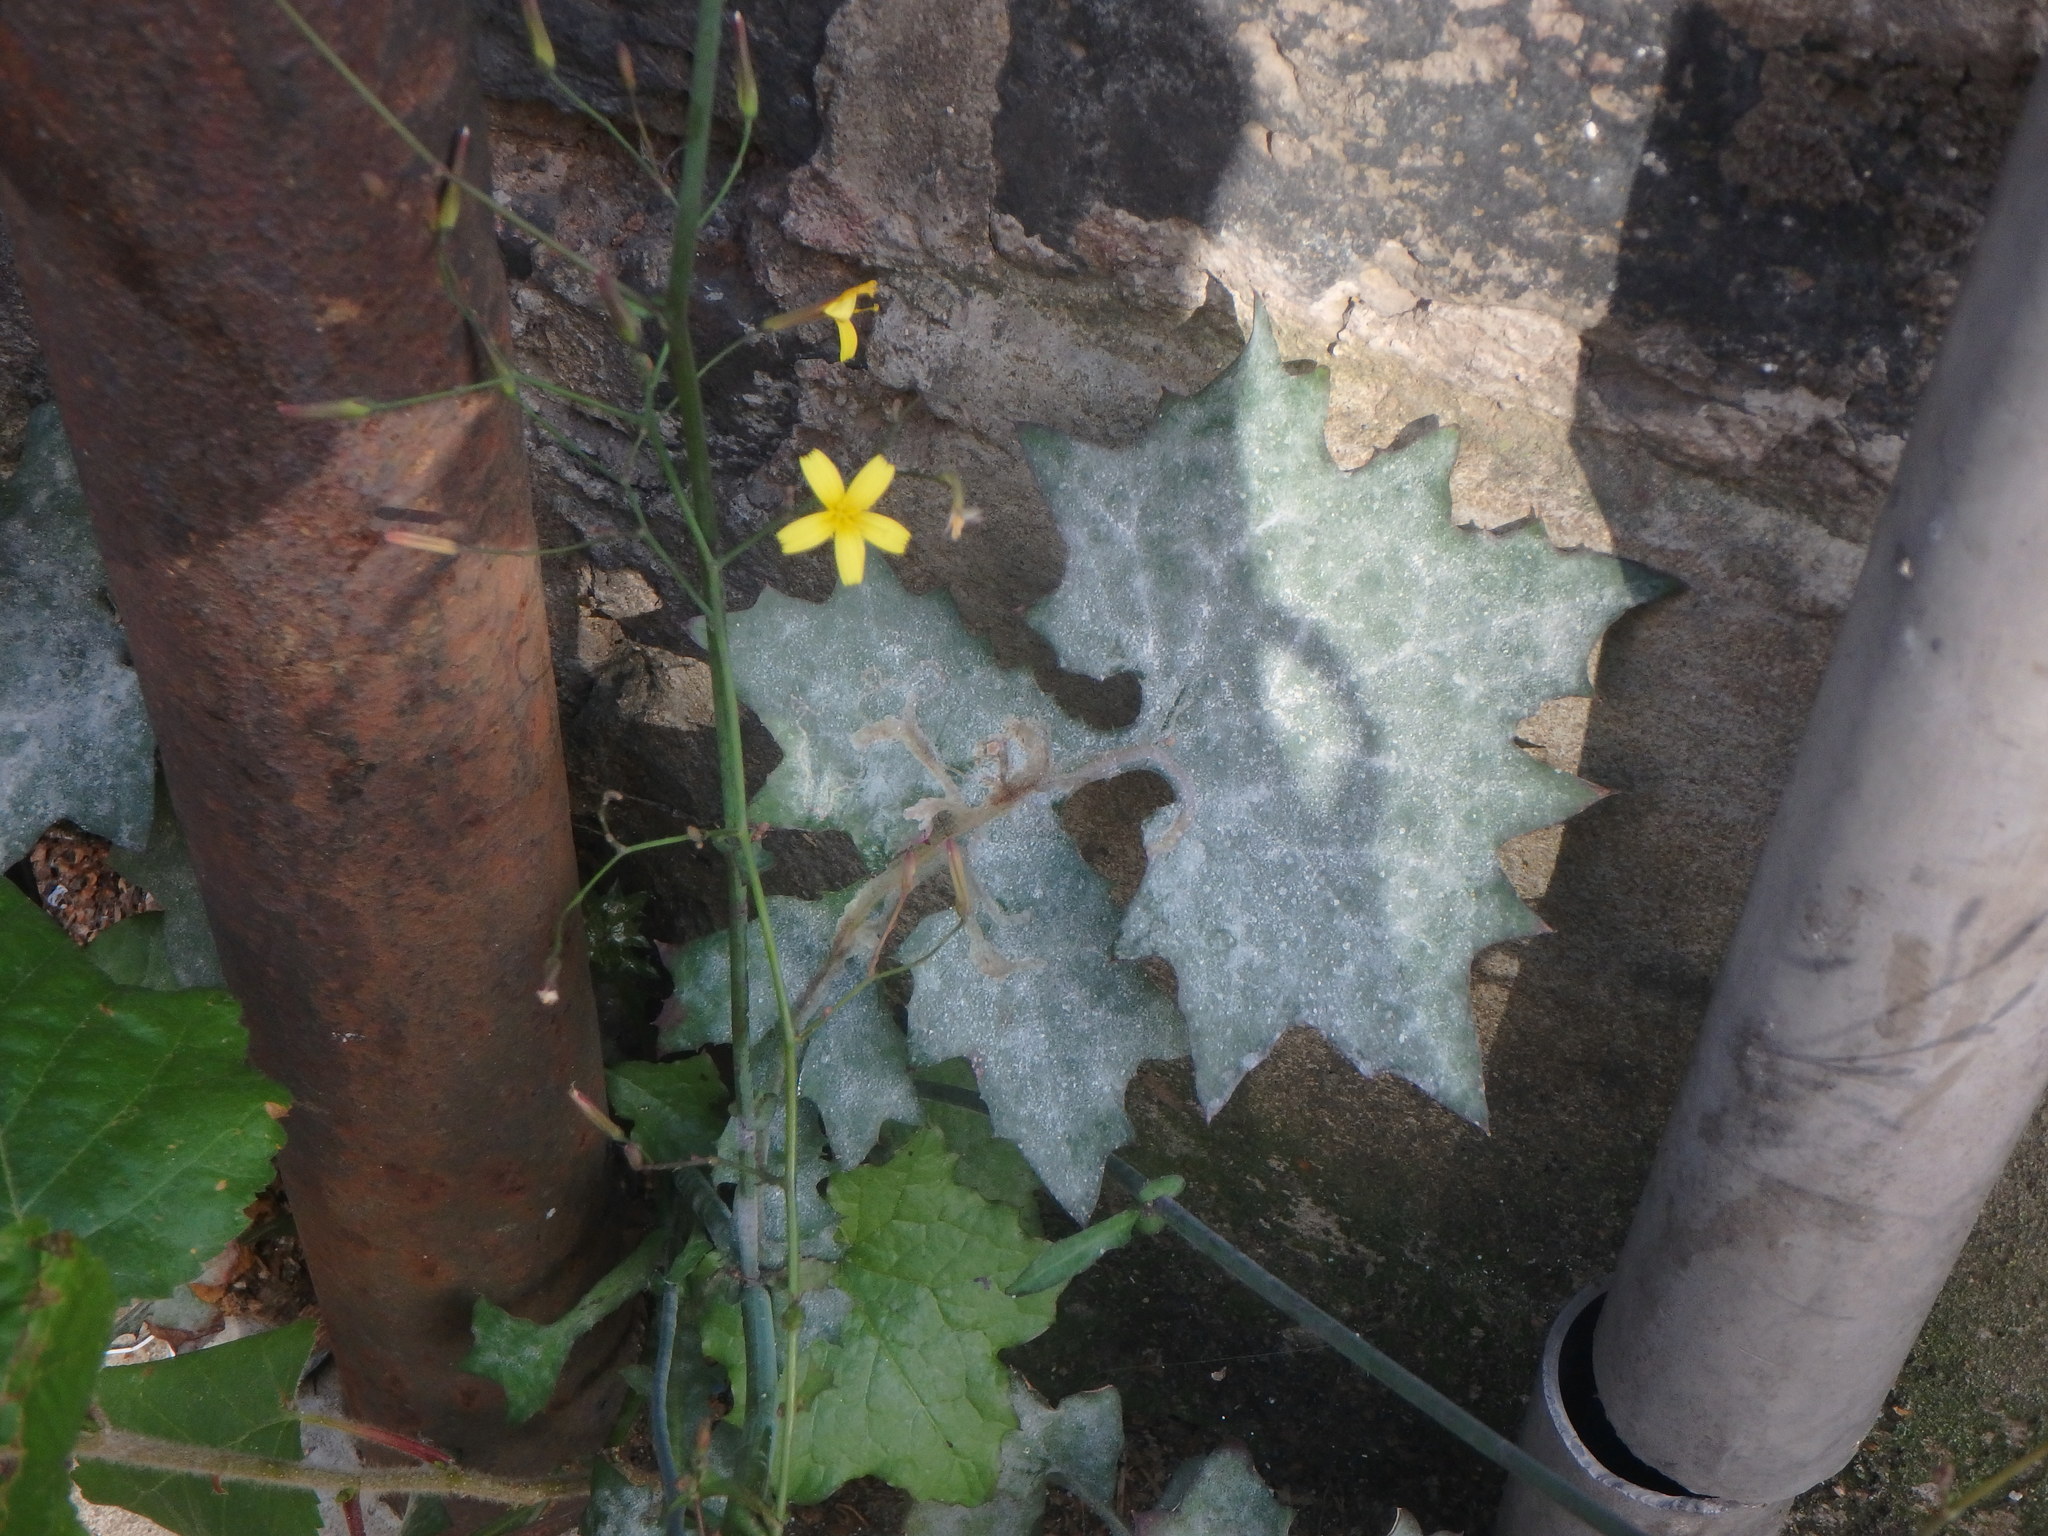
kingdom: Plantae
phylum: Tracheophyta
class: Magnoliopsida
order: Asterales
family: Asteraceae
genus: Mycelis
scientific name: Mycelis muralis
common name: Wall lettuce
